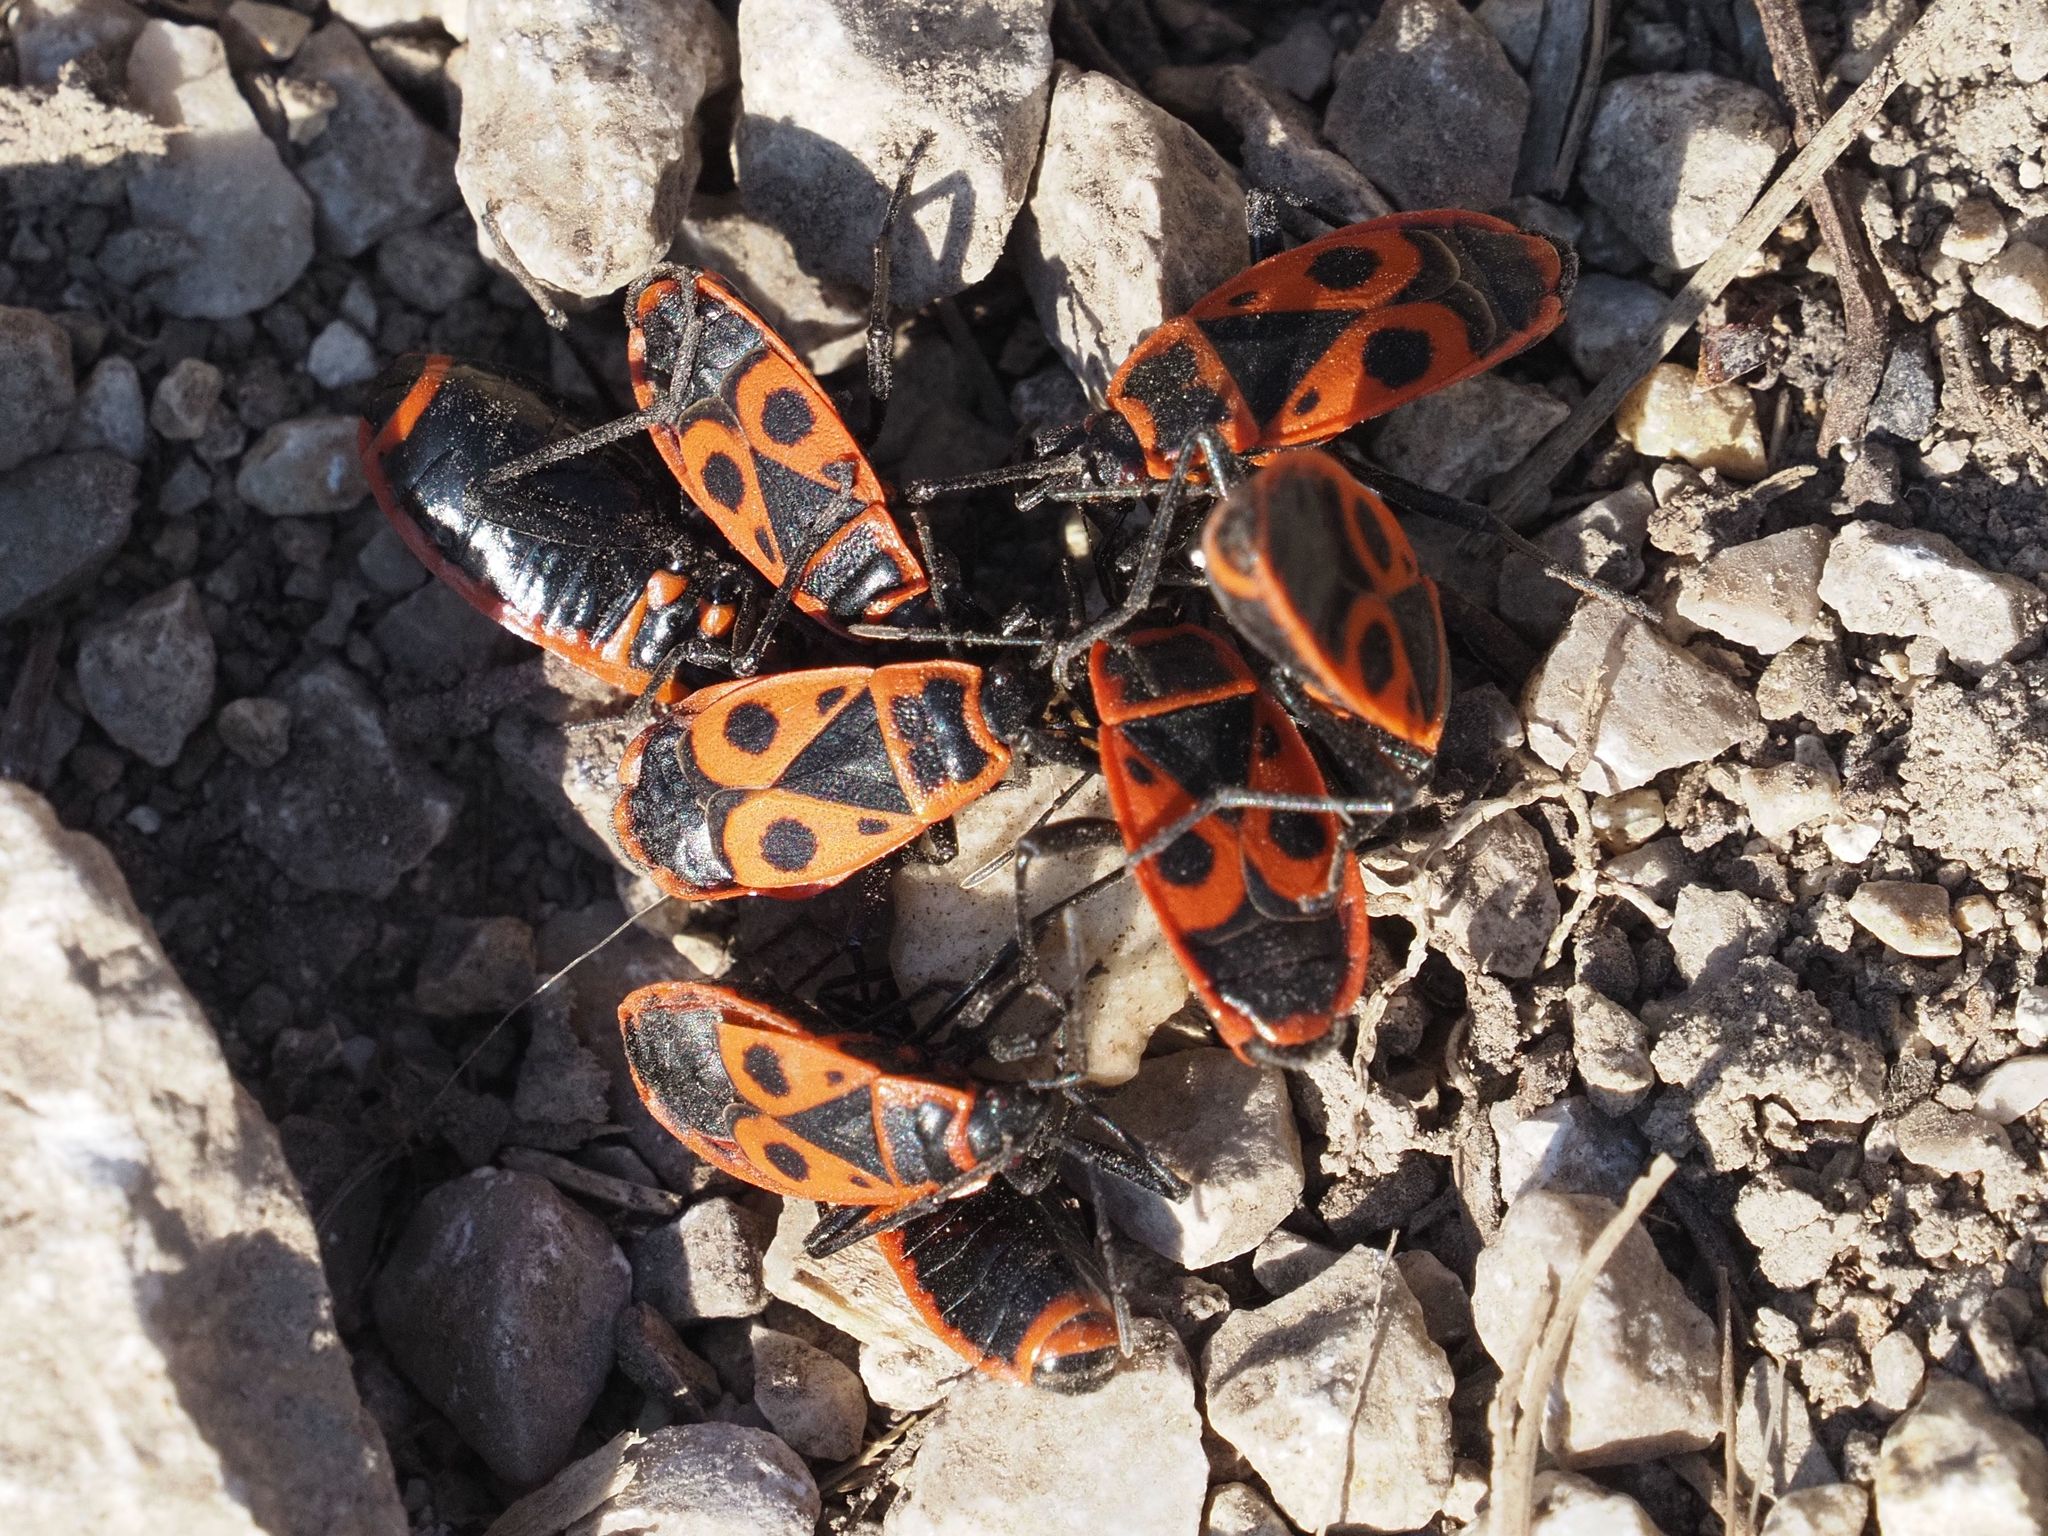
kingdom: Animalia
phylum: Arthropoda
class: Insecta
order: Hemiptera
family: Pyrrhocoridae
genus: Pyrrhocoris
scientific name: Pyrrhocoris apterus
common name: Firebug
